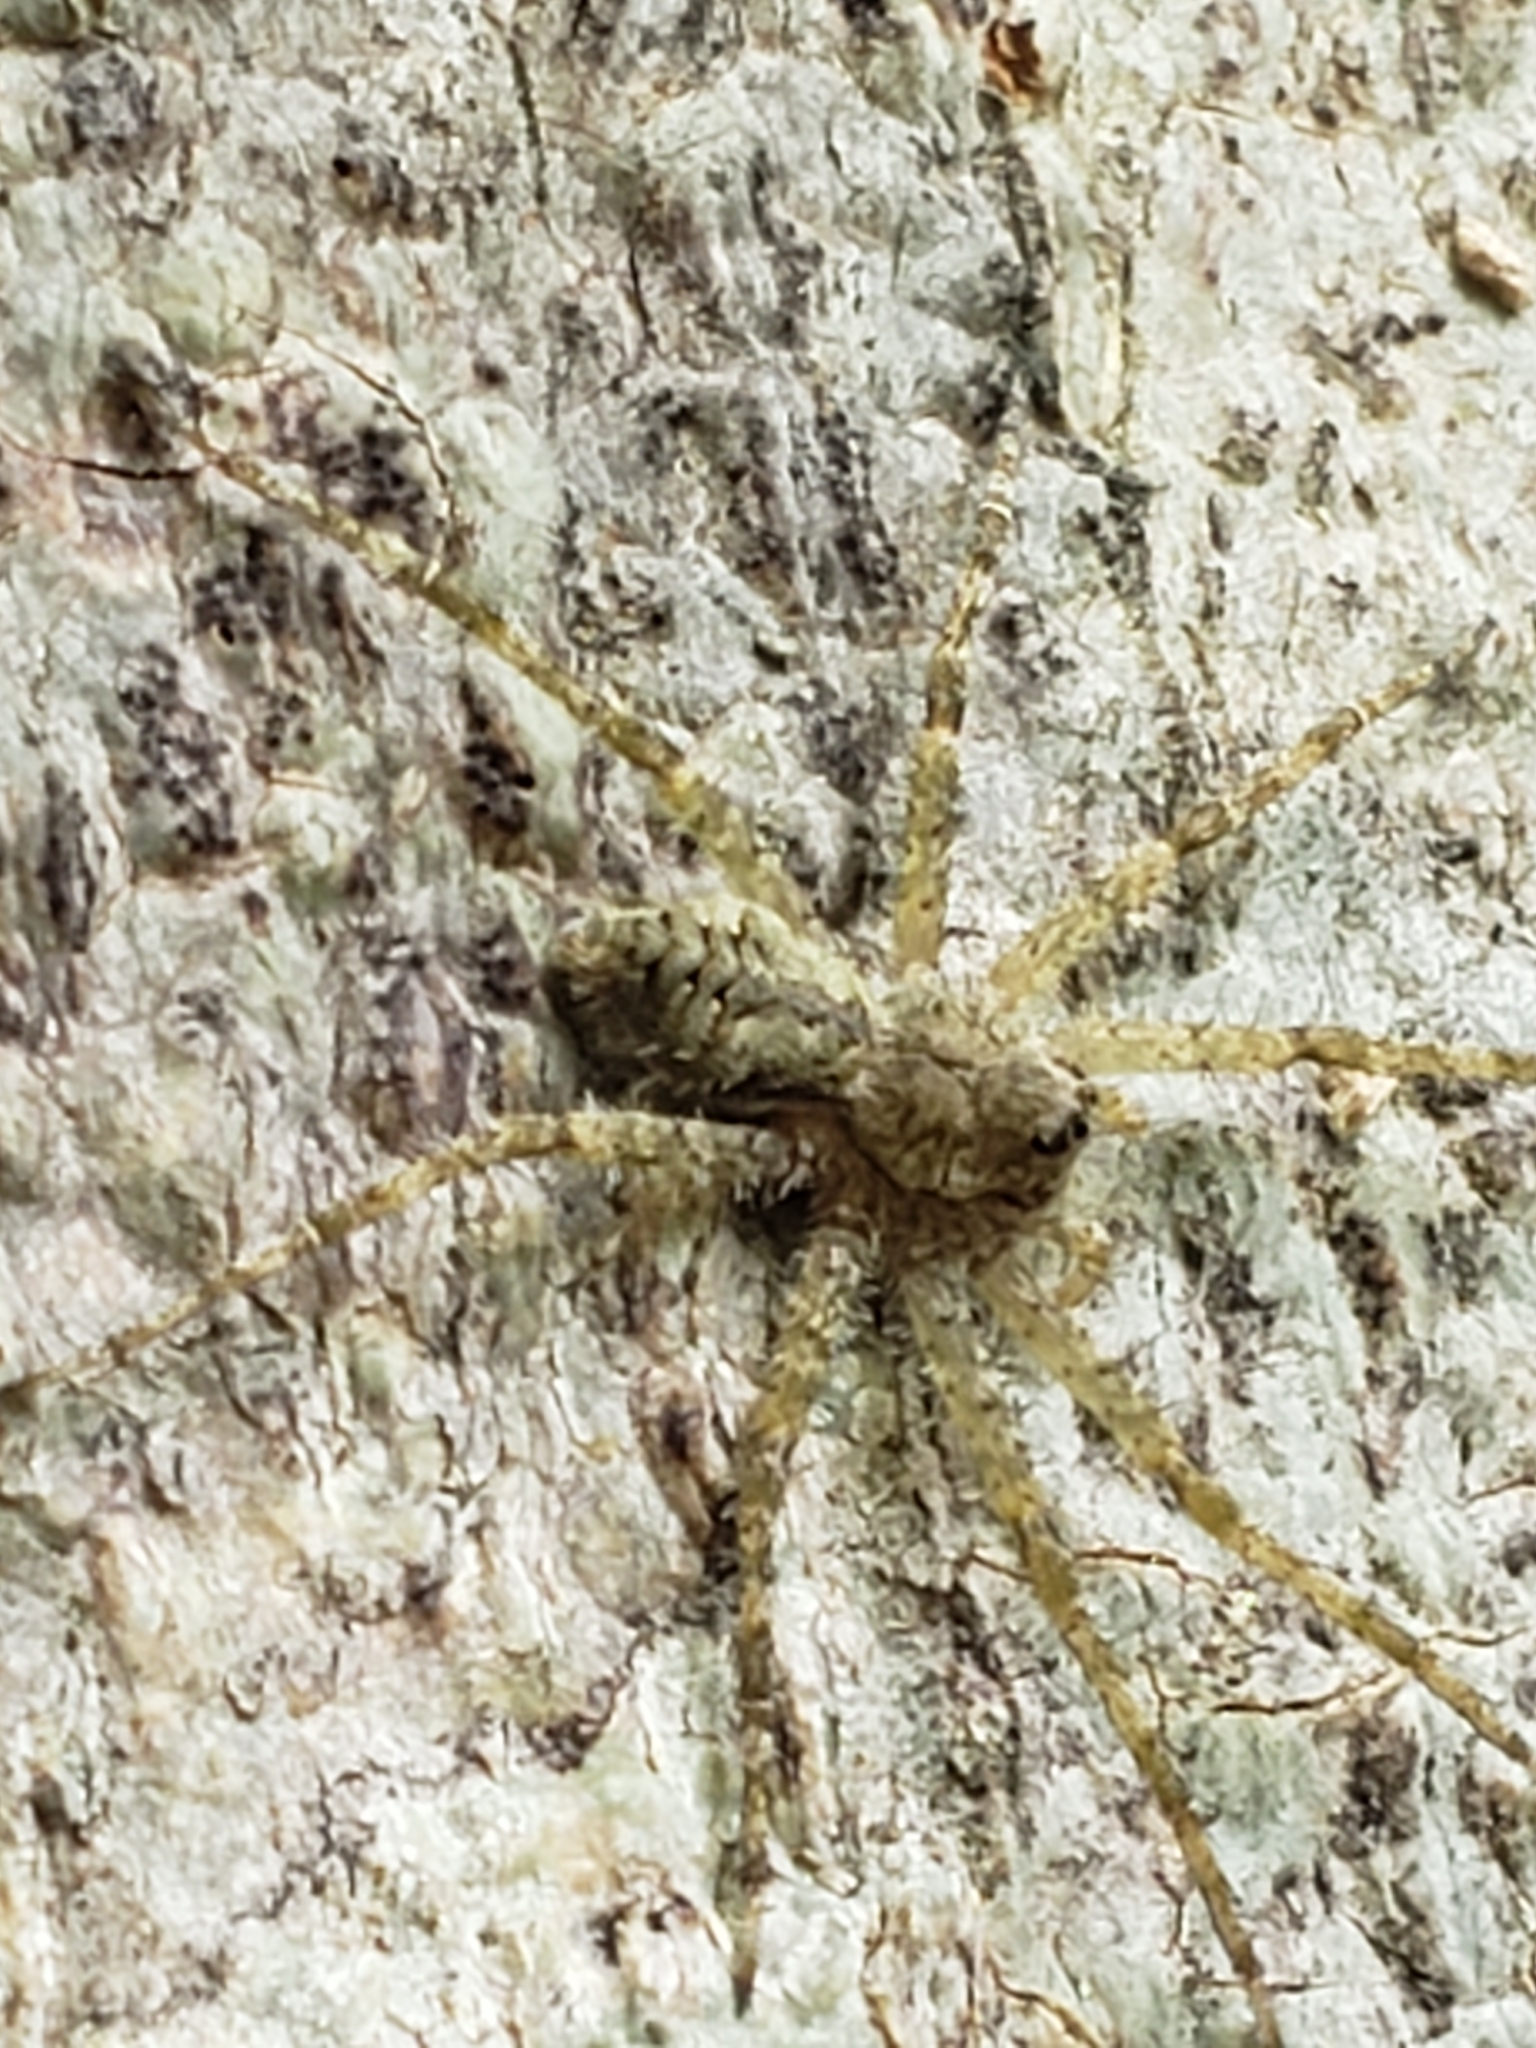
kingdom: Animalia
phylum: Arthropoda
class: Arachnida
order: Araneae
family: Pisauridae
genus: Dolomedes
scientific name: Dolomedes albineus
